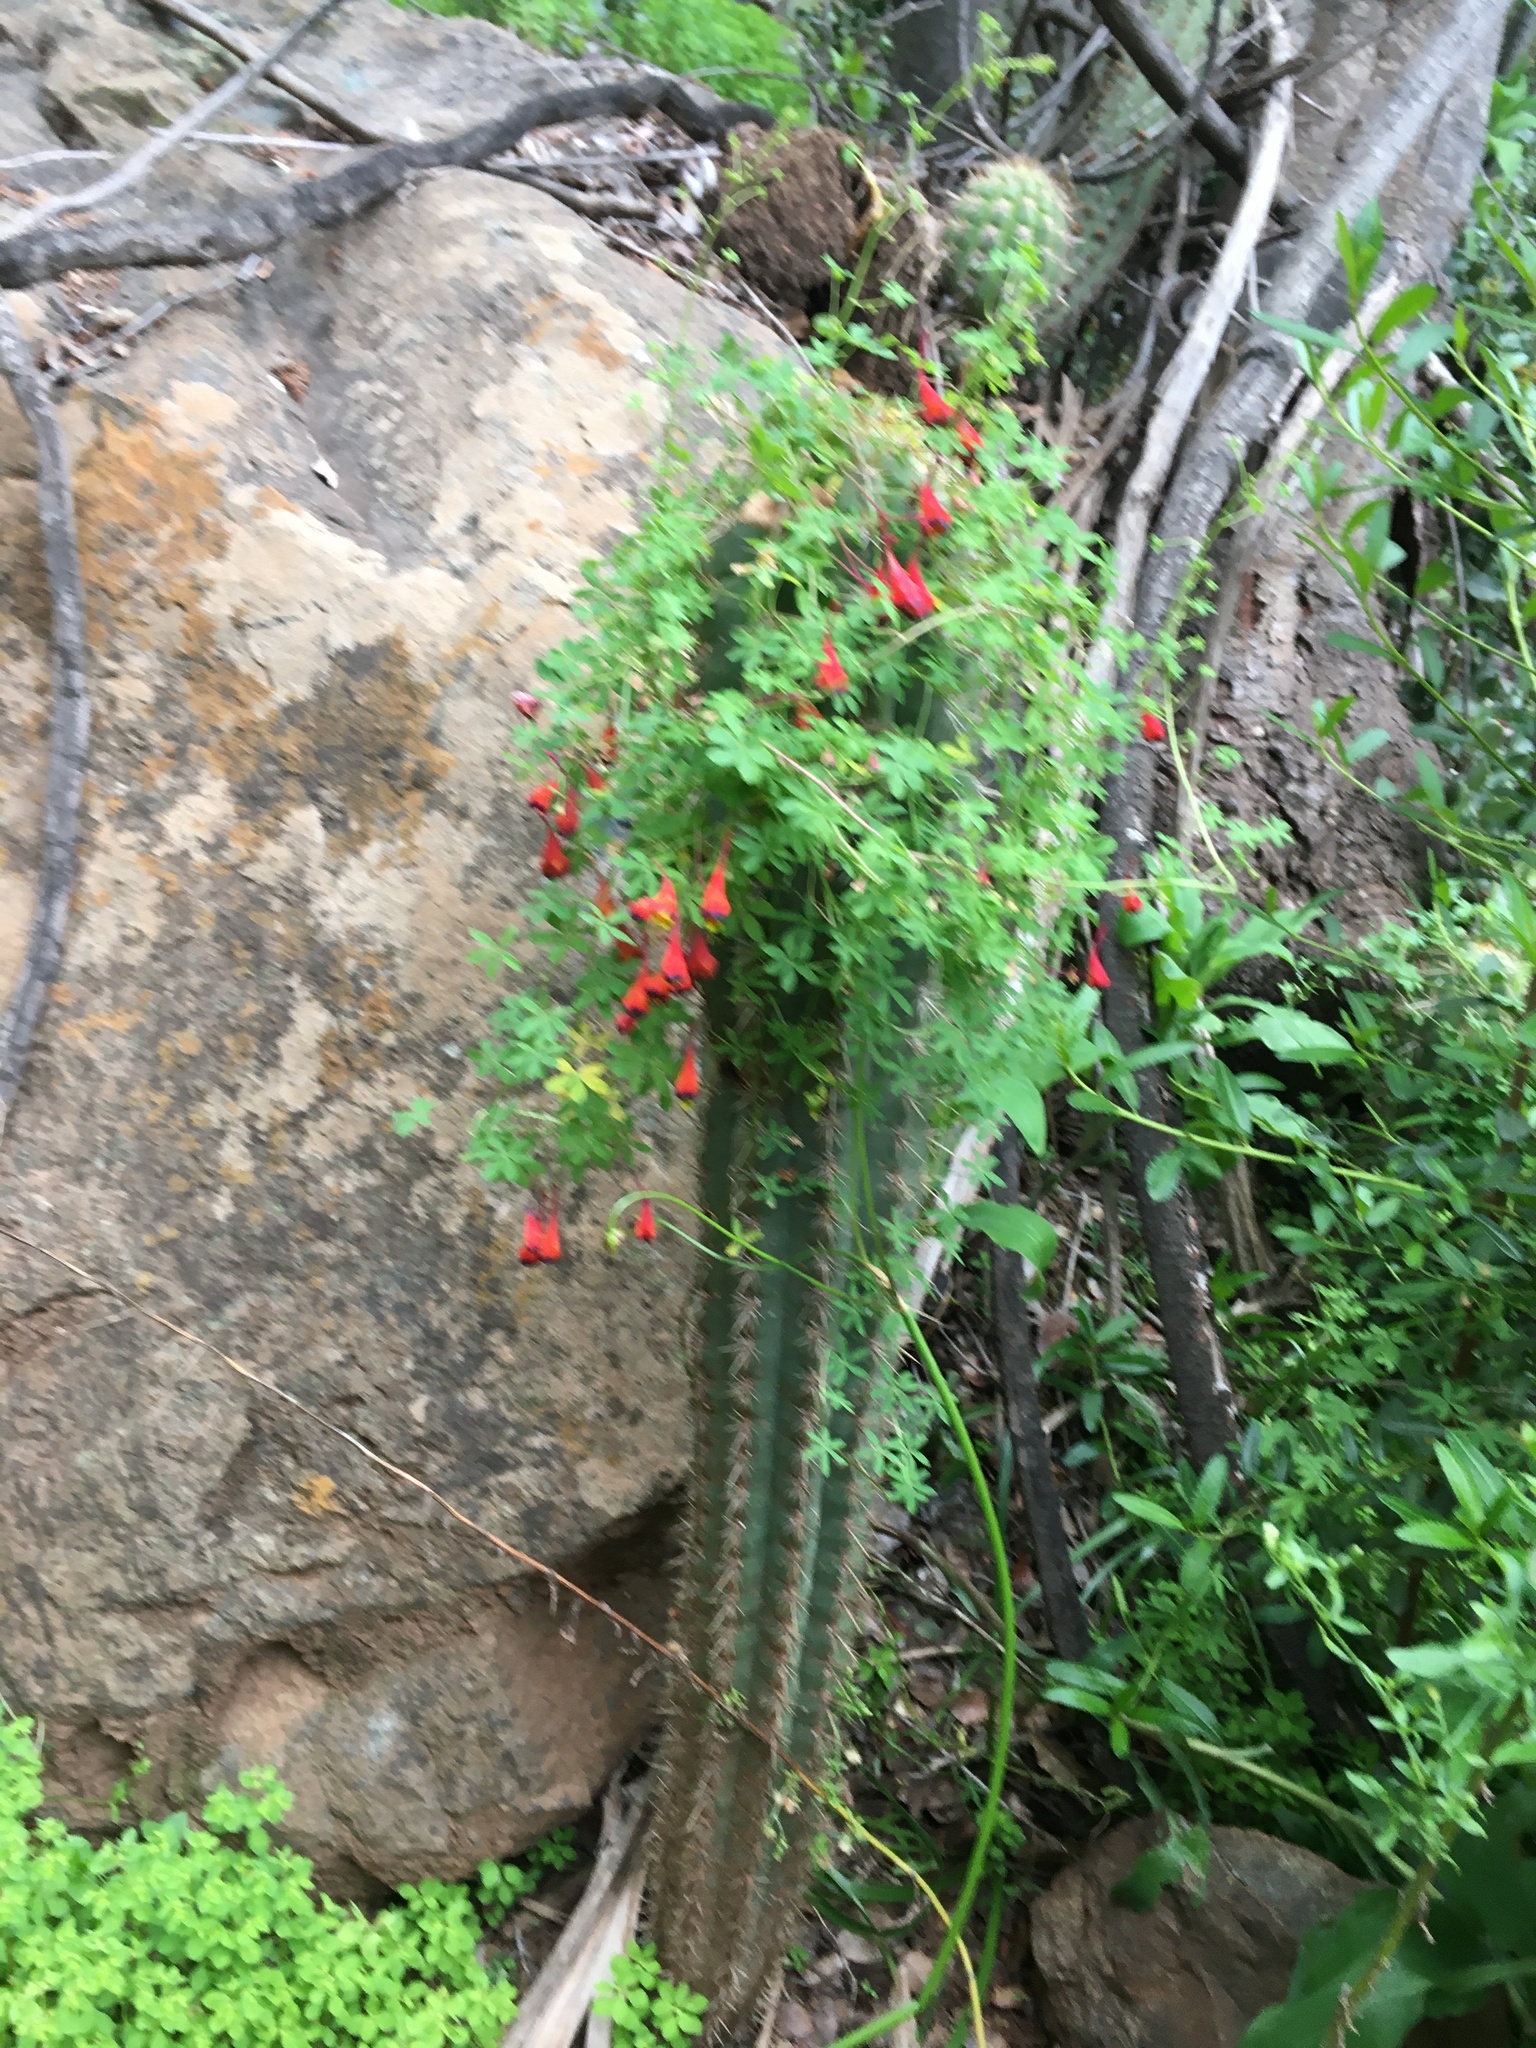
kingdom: Plantae
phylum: Tracheophyta
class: Magnoliopsida
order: Brassicales
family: Tropaeolaceae
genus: Tropaeolum
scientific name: Tropaeolum tricolor
